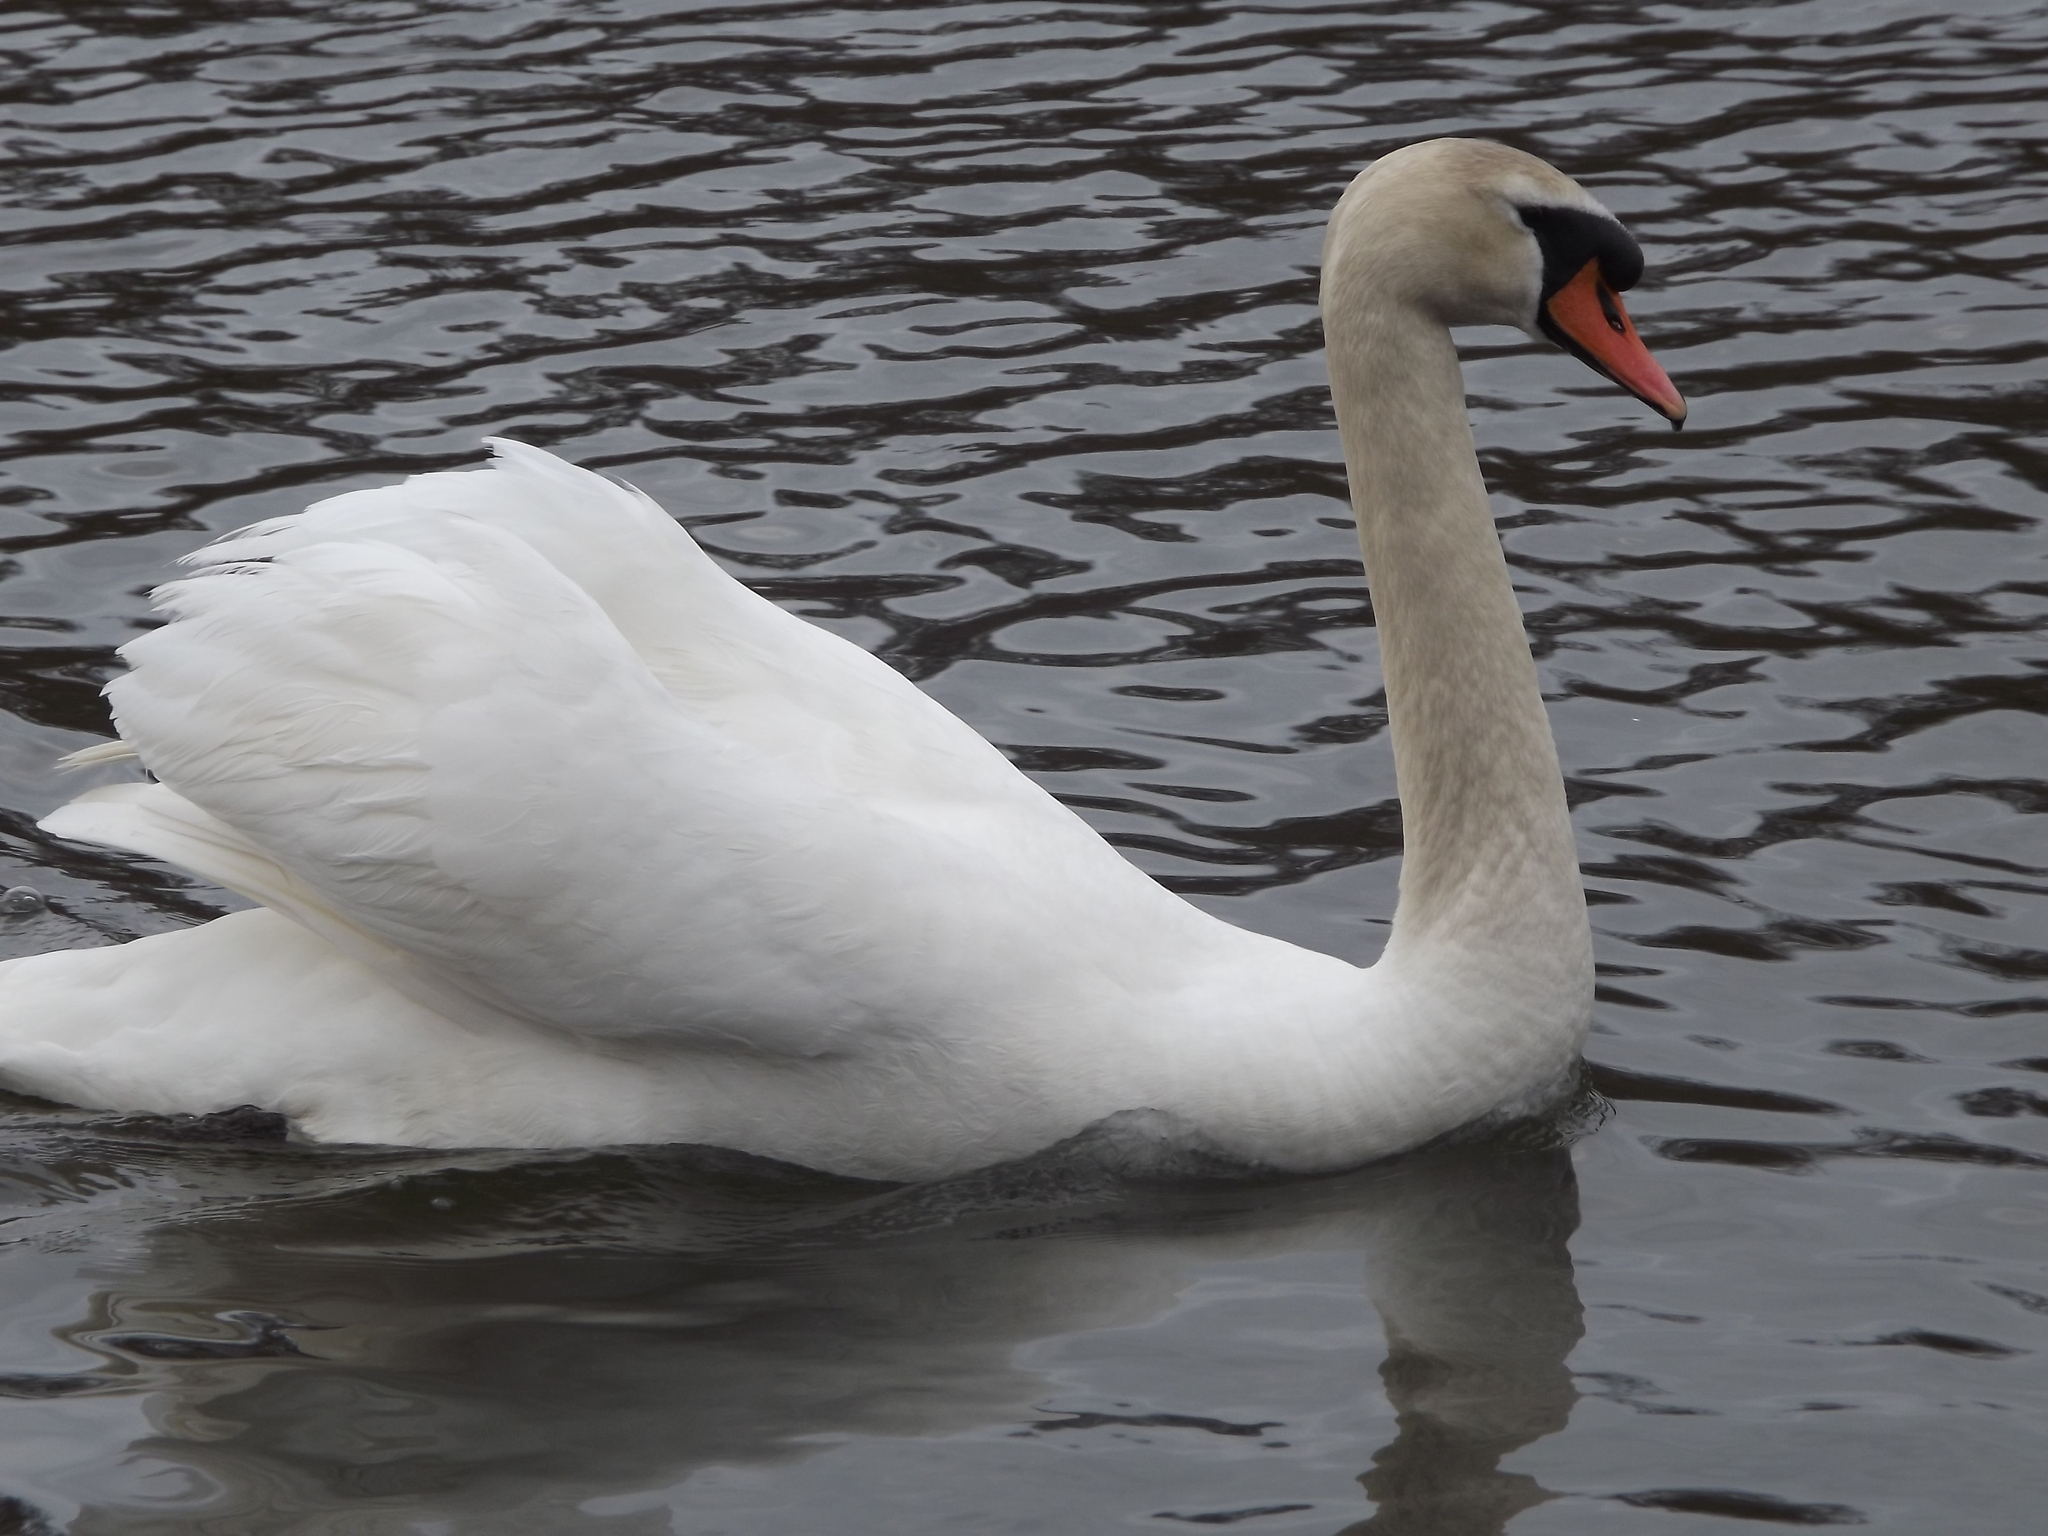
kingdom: Animalia
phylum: Chordata
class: Aves
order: Anseriformes
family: Anatidae
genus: Cygnus
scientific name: Cygnus olor
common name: Mute swan
